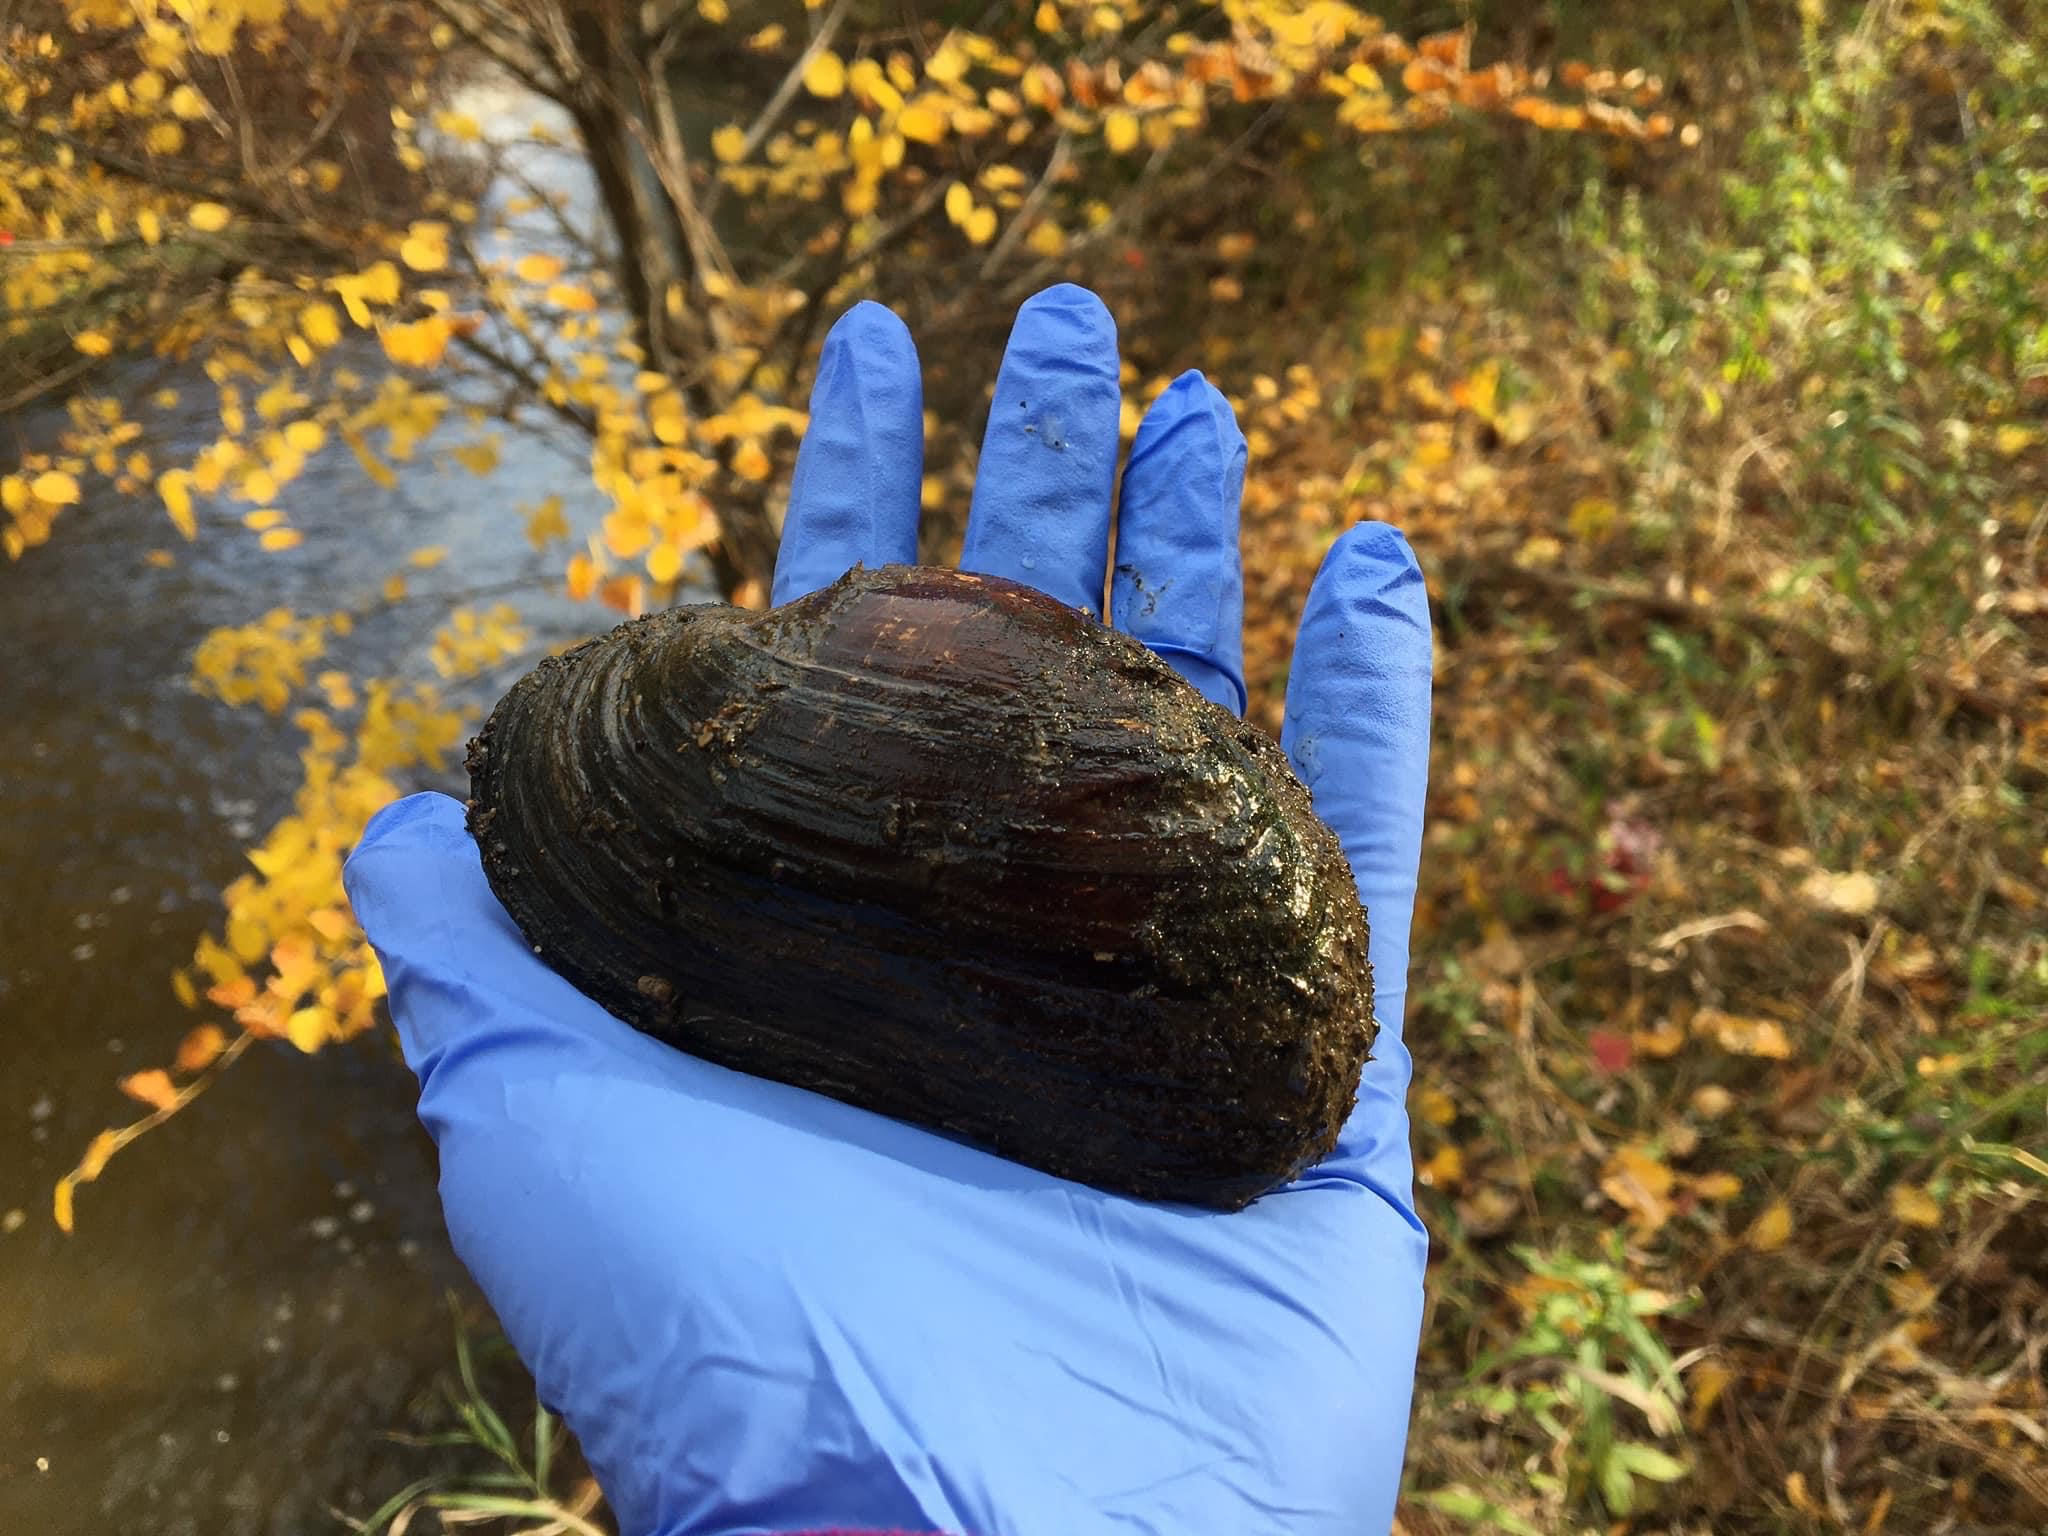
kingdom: Animalia
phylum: Mollusca
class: Bivalvia
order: Unionida
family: Unionidae
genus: Strophitus
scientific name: Strophitus undulatus
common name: Creeper
